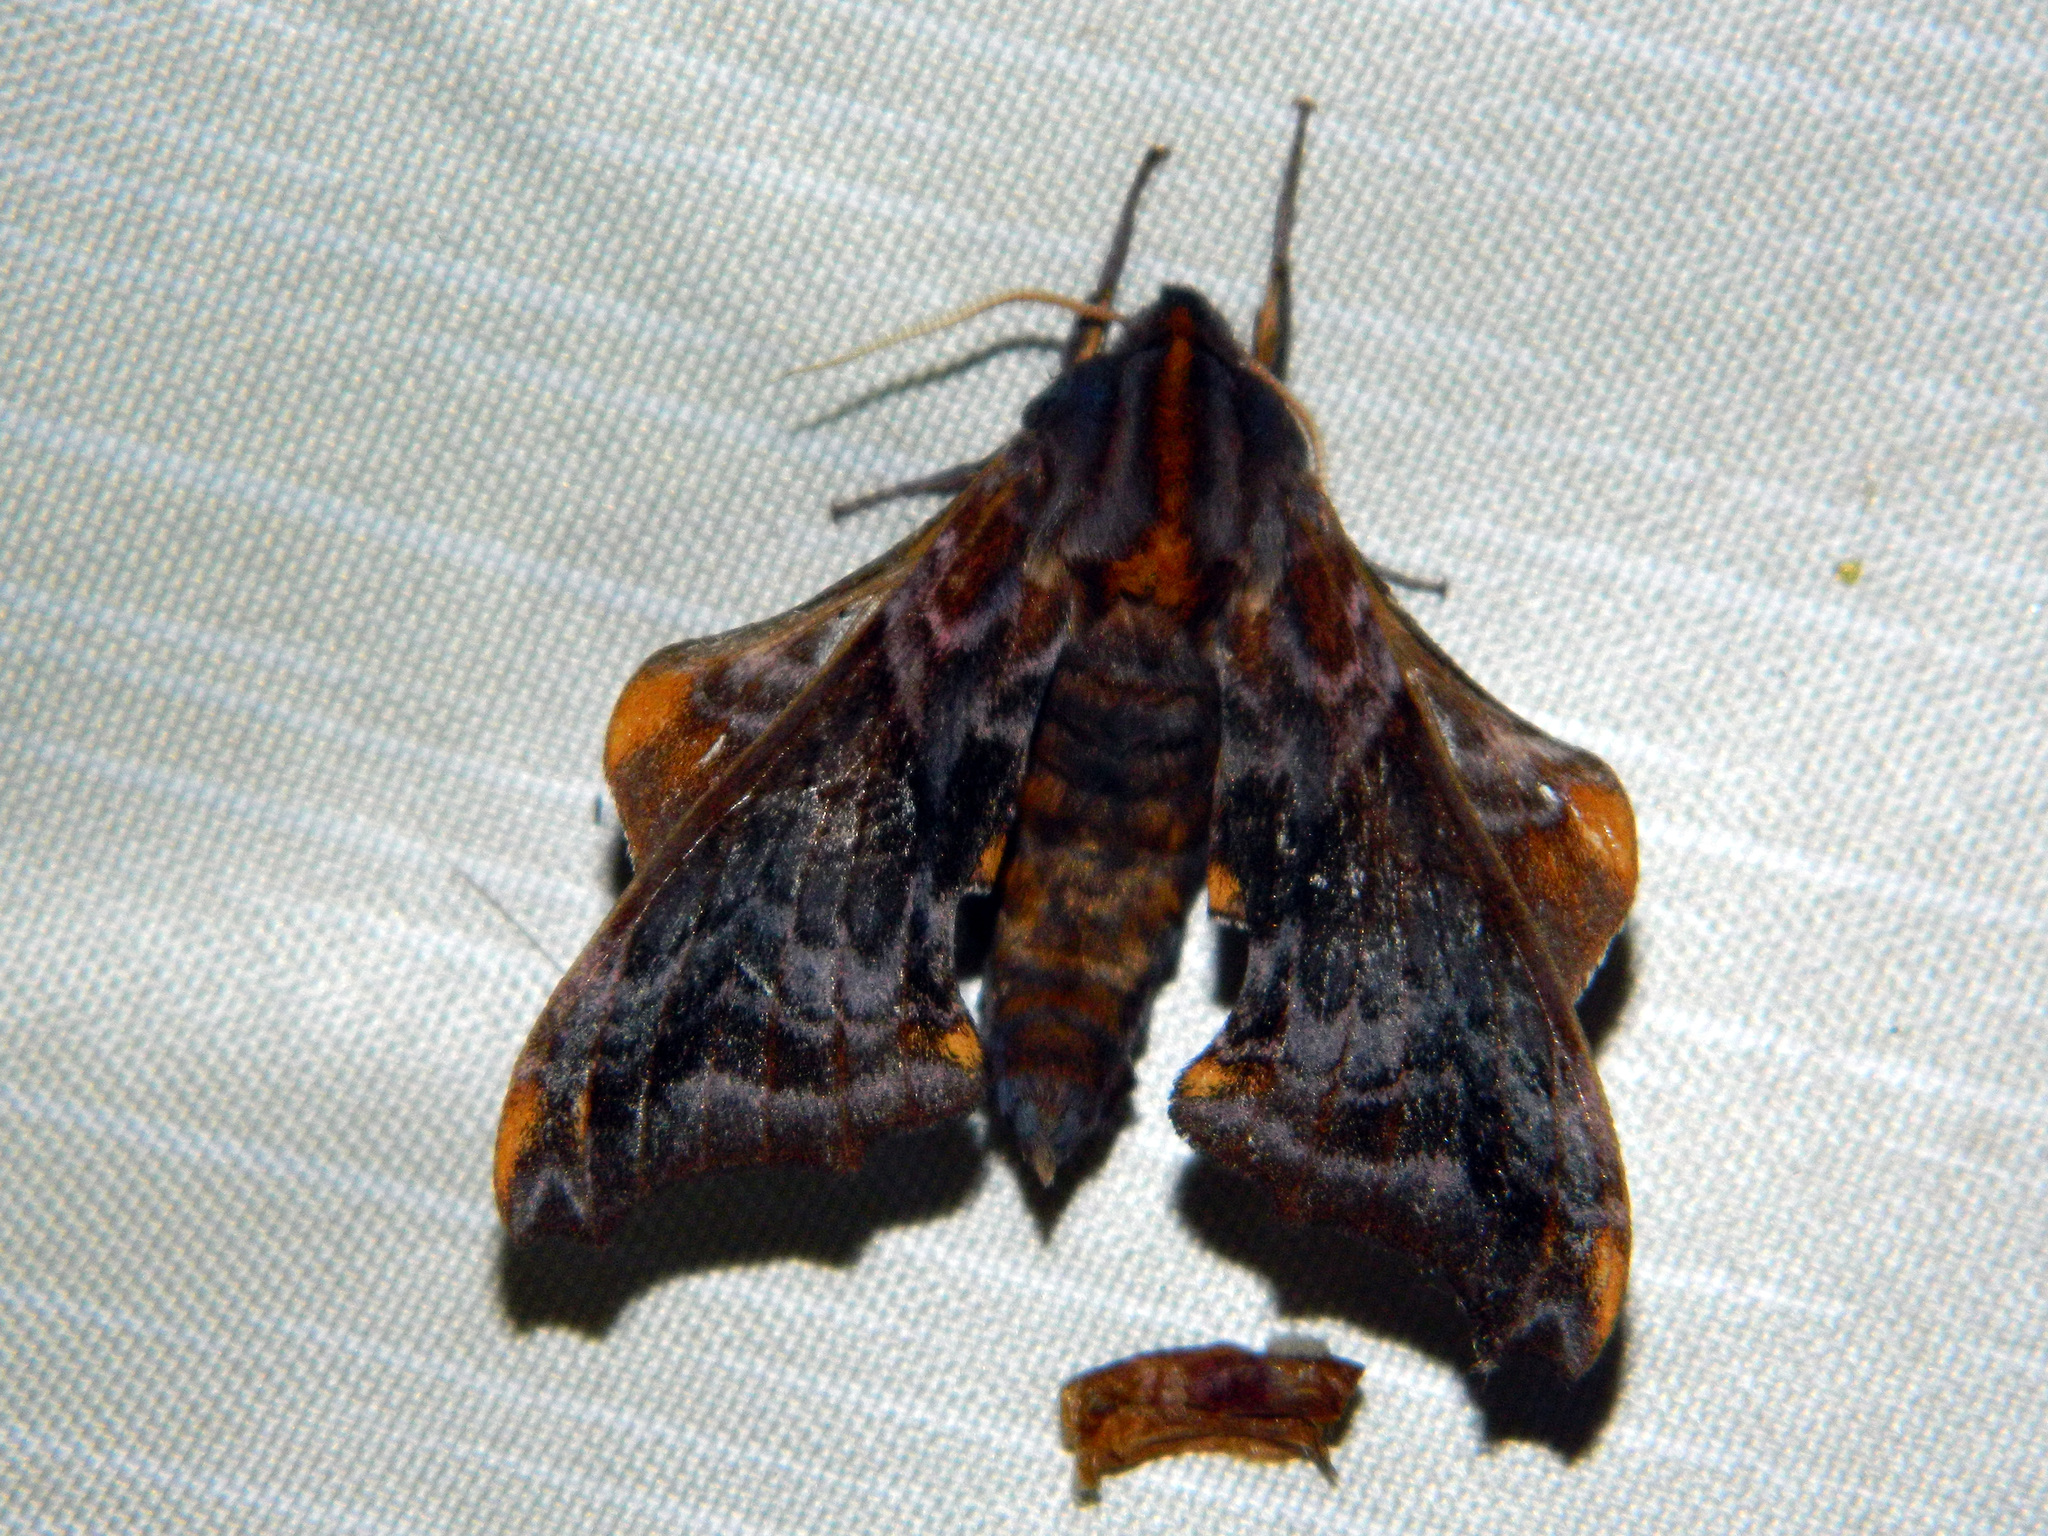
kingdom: Animalia
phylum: Arthropoda
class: Insecta
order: Lepidoptera
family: Sphingidae
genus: Paonias
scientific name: Paonias myops
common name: Small-eyed sphinx
